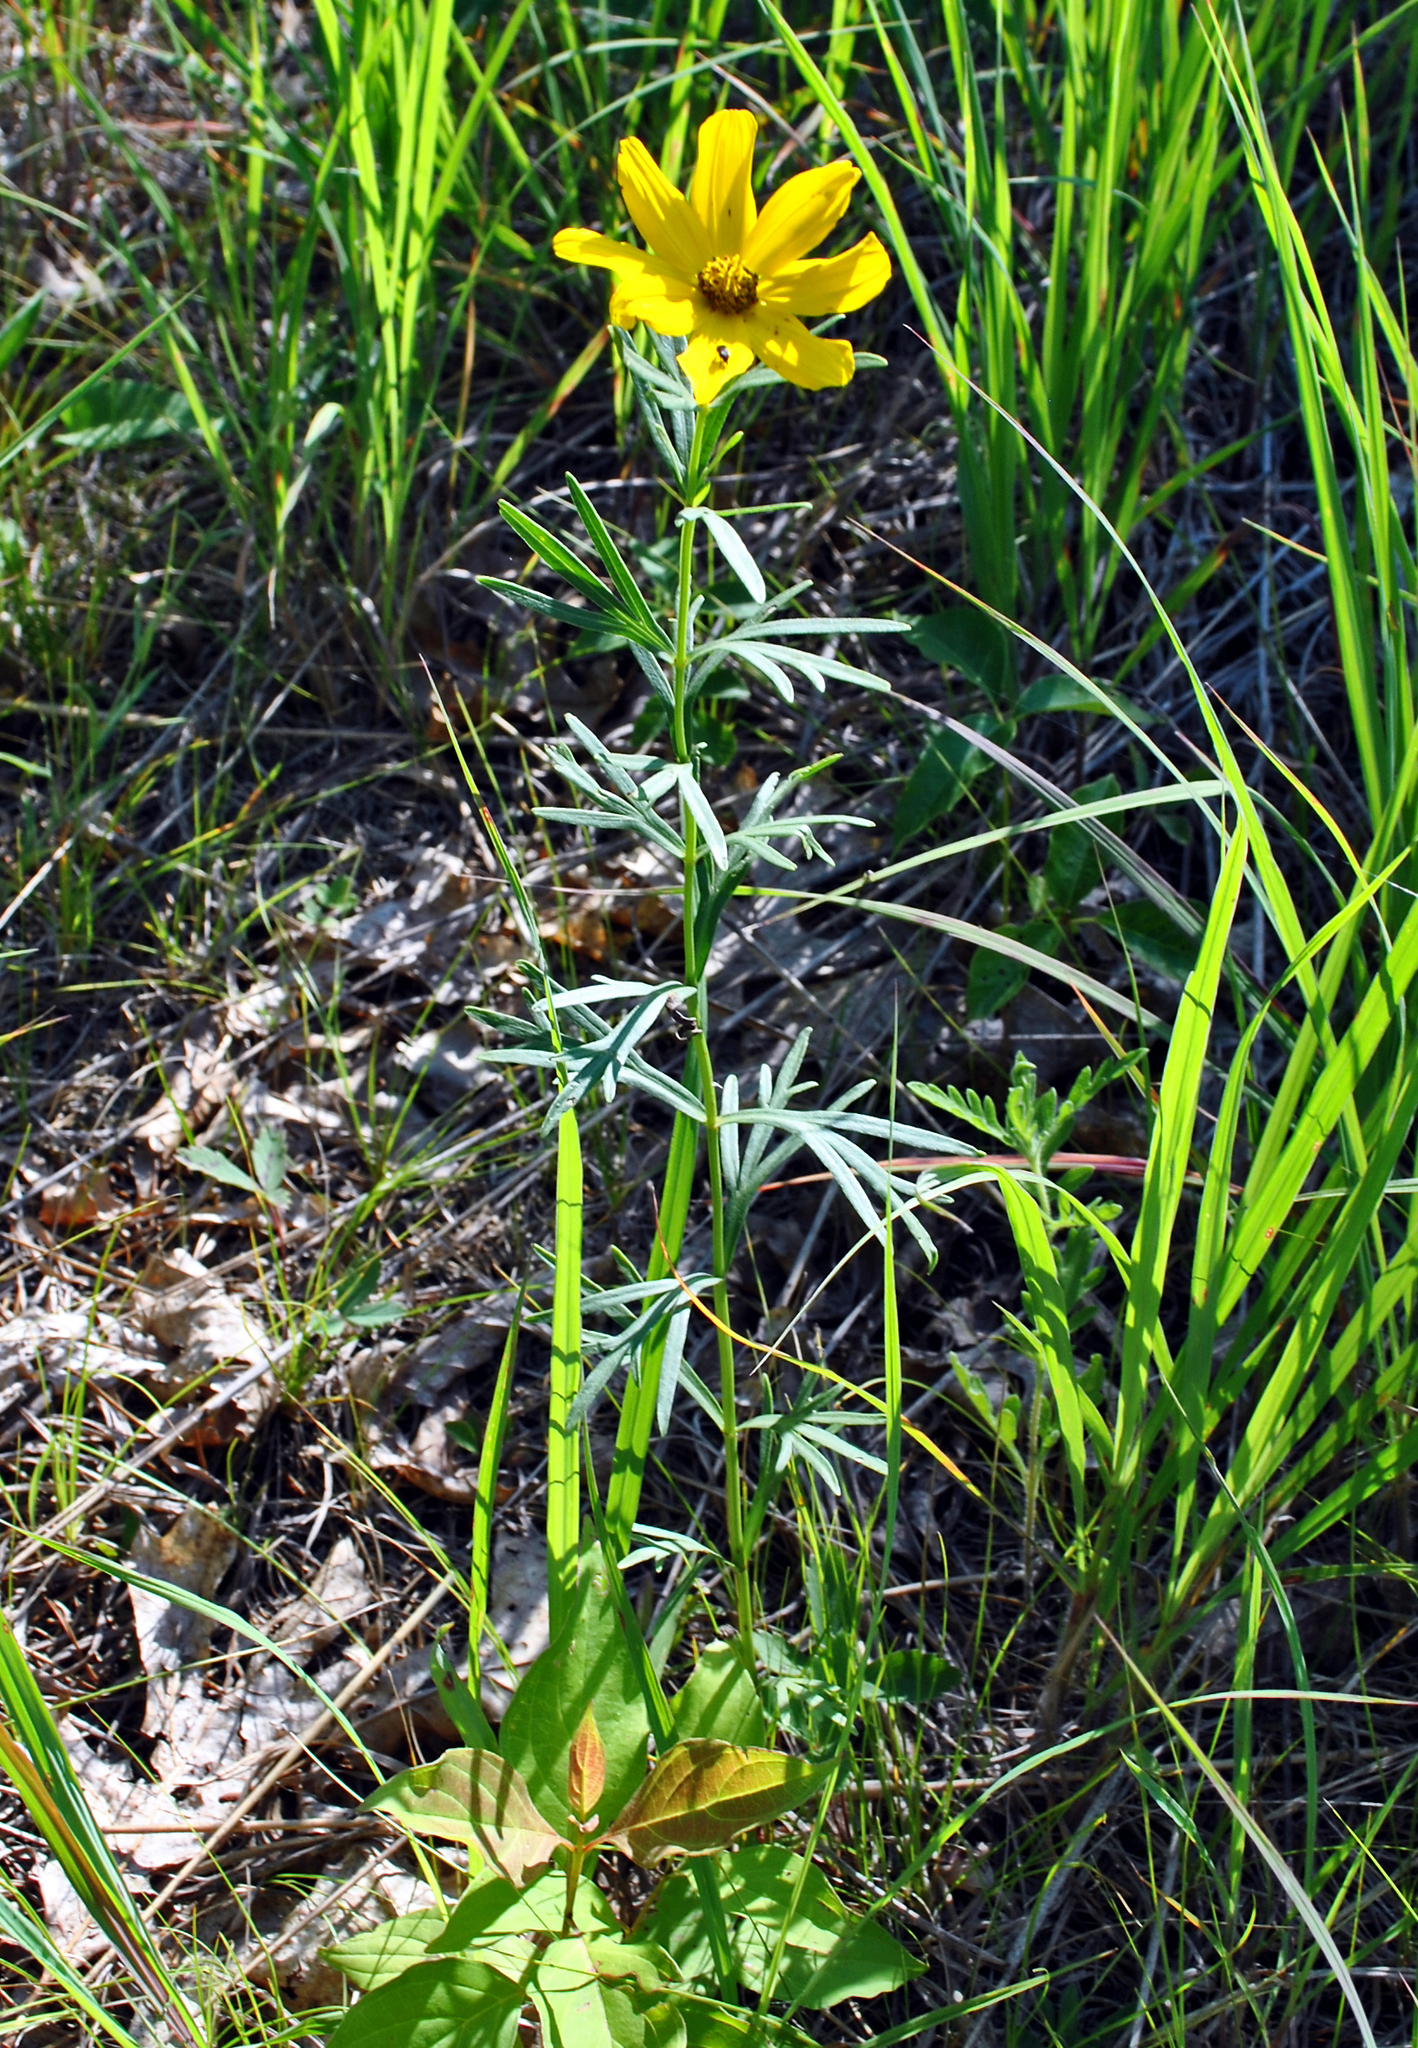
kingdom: Plantae
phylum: Tracheophyta
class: Magnoliopsida
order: Asterales
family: Asteraceae
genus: Coreopsis
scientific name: Coreopsis palmata
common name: Prairie coreopsis
